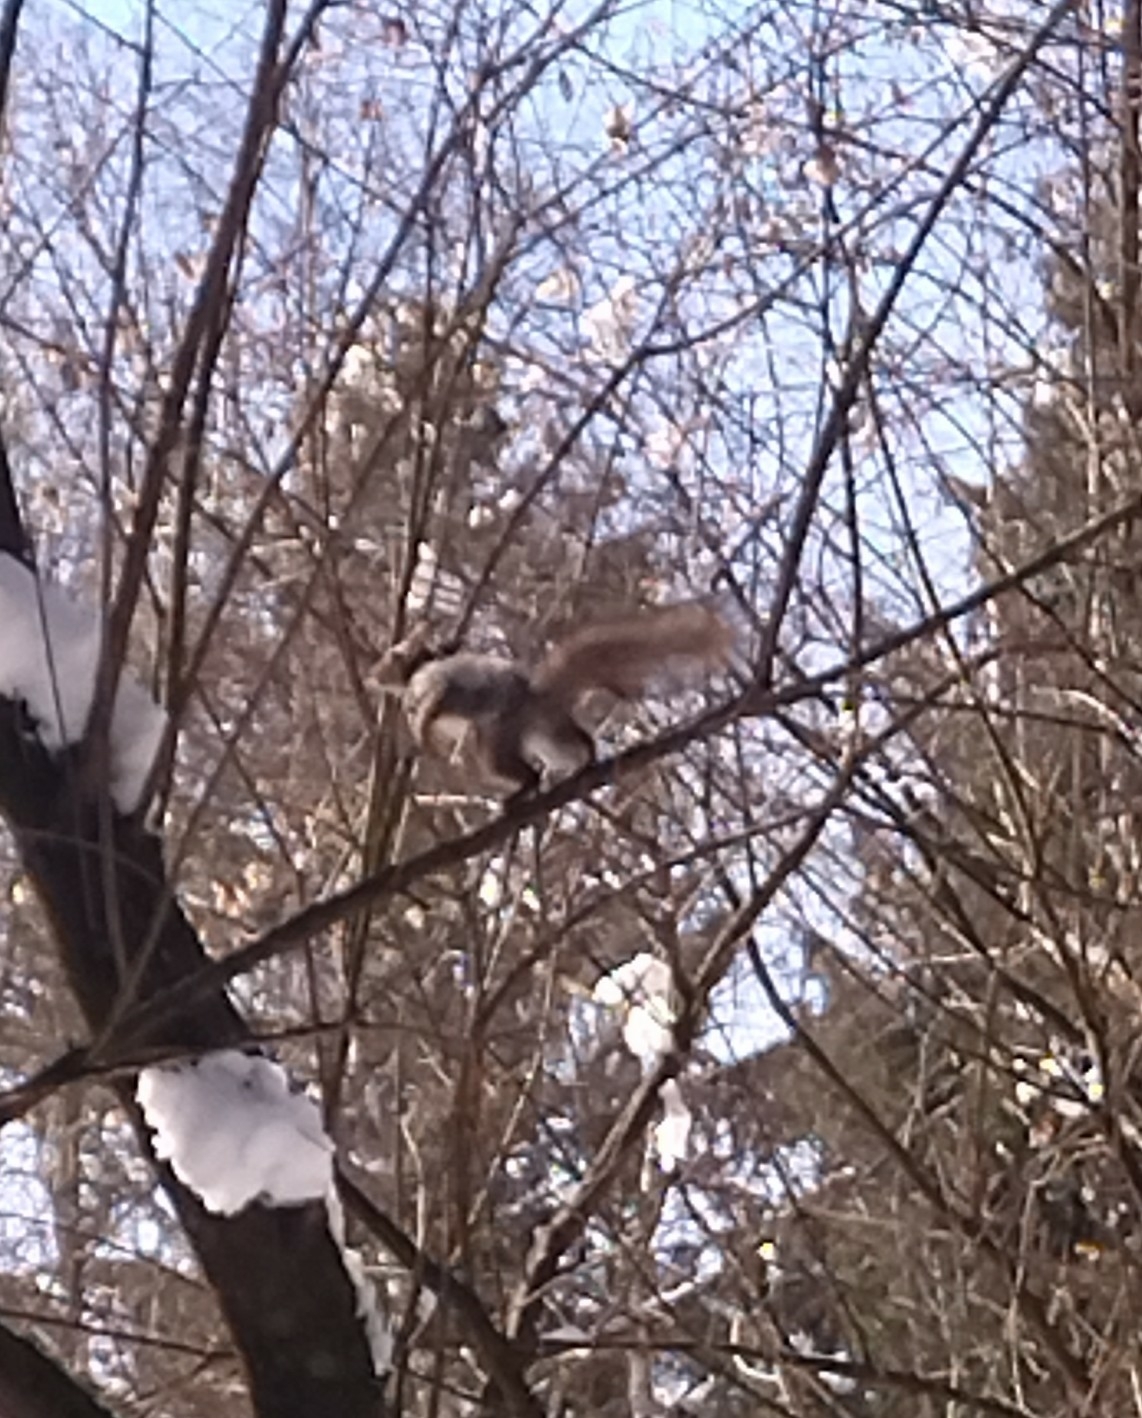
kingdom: Animalia
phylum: Chordata
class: Mammalia
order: Rodentia
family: Sciuridae
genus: Sciurus
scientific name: Sciurus vulgaris
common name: Eurasian red squirrel
